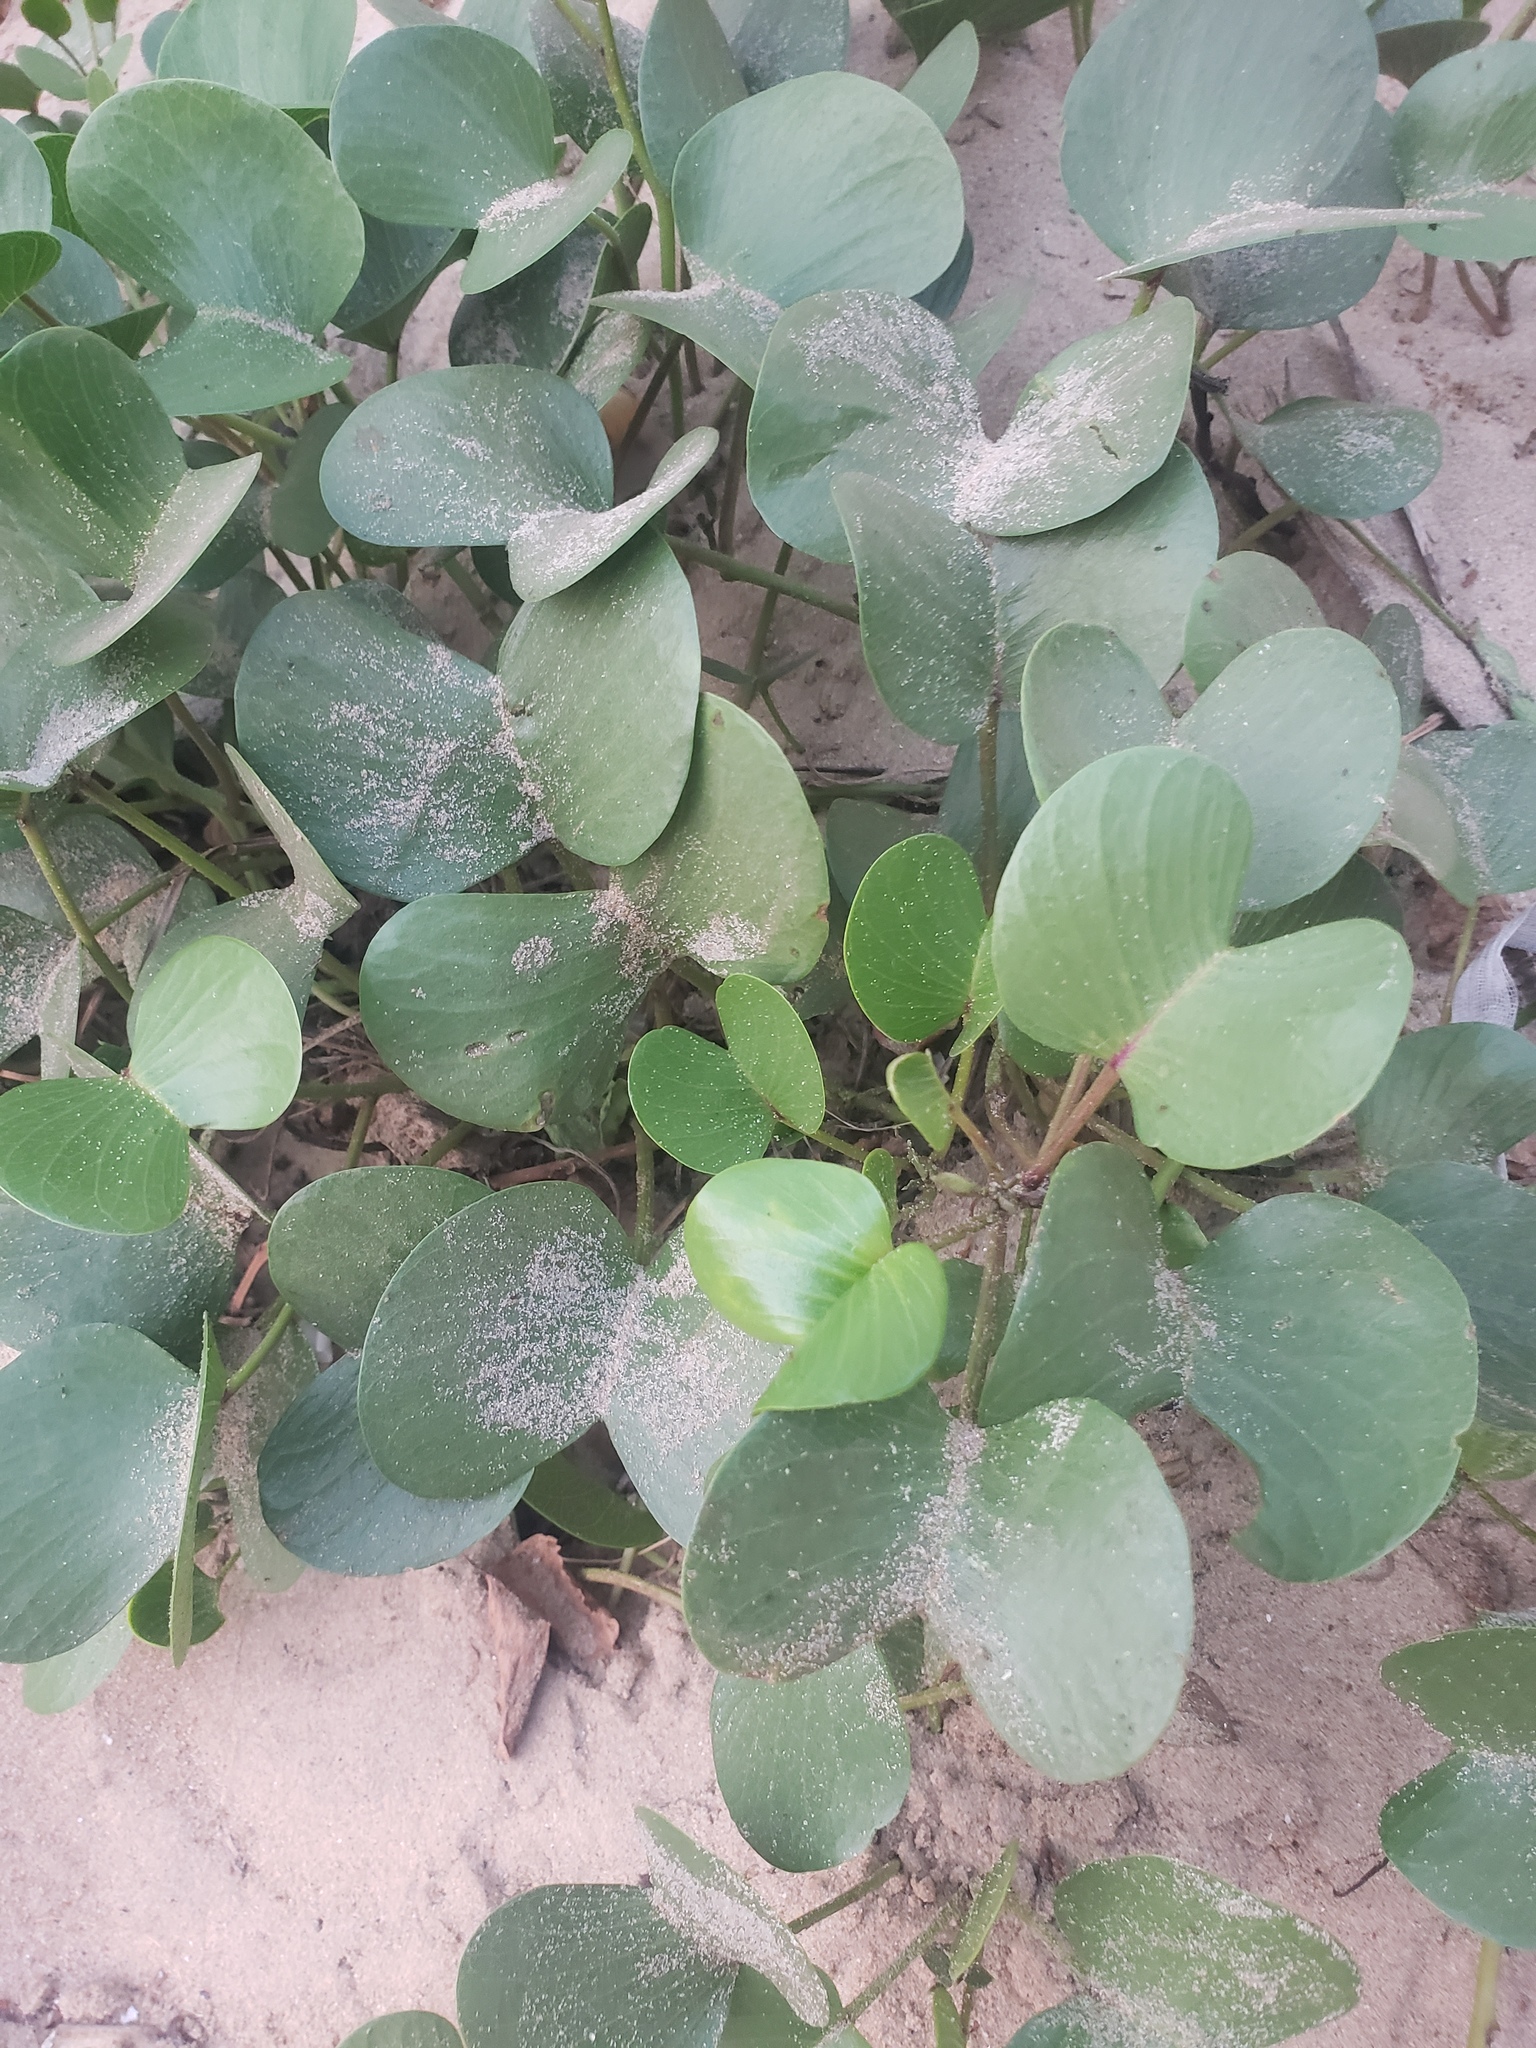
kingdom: Plantae
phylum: Tracheophyta
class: Magnoliopsida
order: Solanales
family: Convolvulaceae
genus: Ipomoea
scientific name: Ipomoea pes-caprae
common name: Beach morning glory
